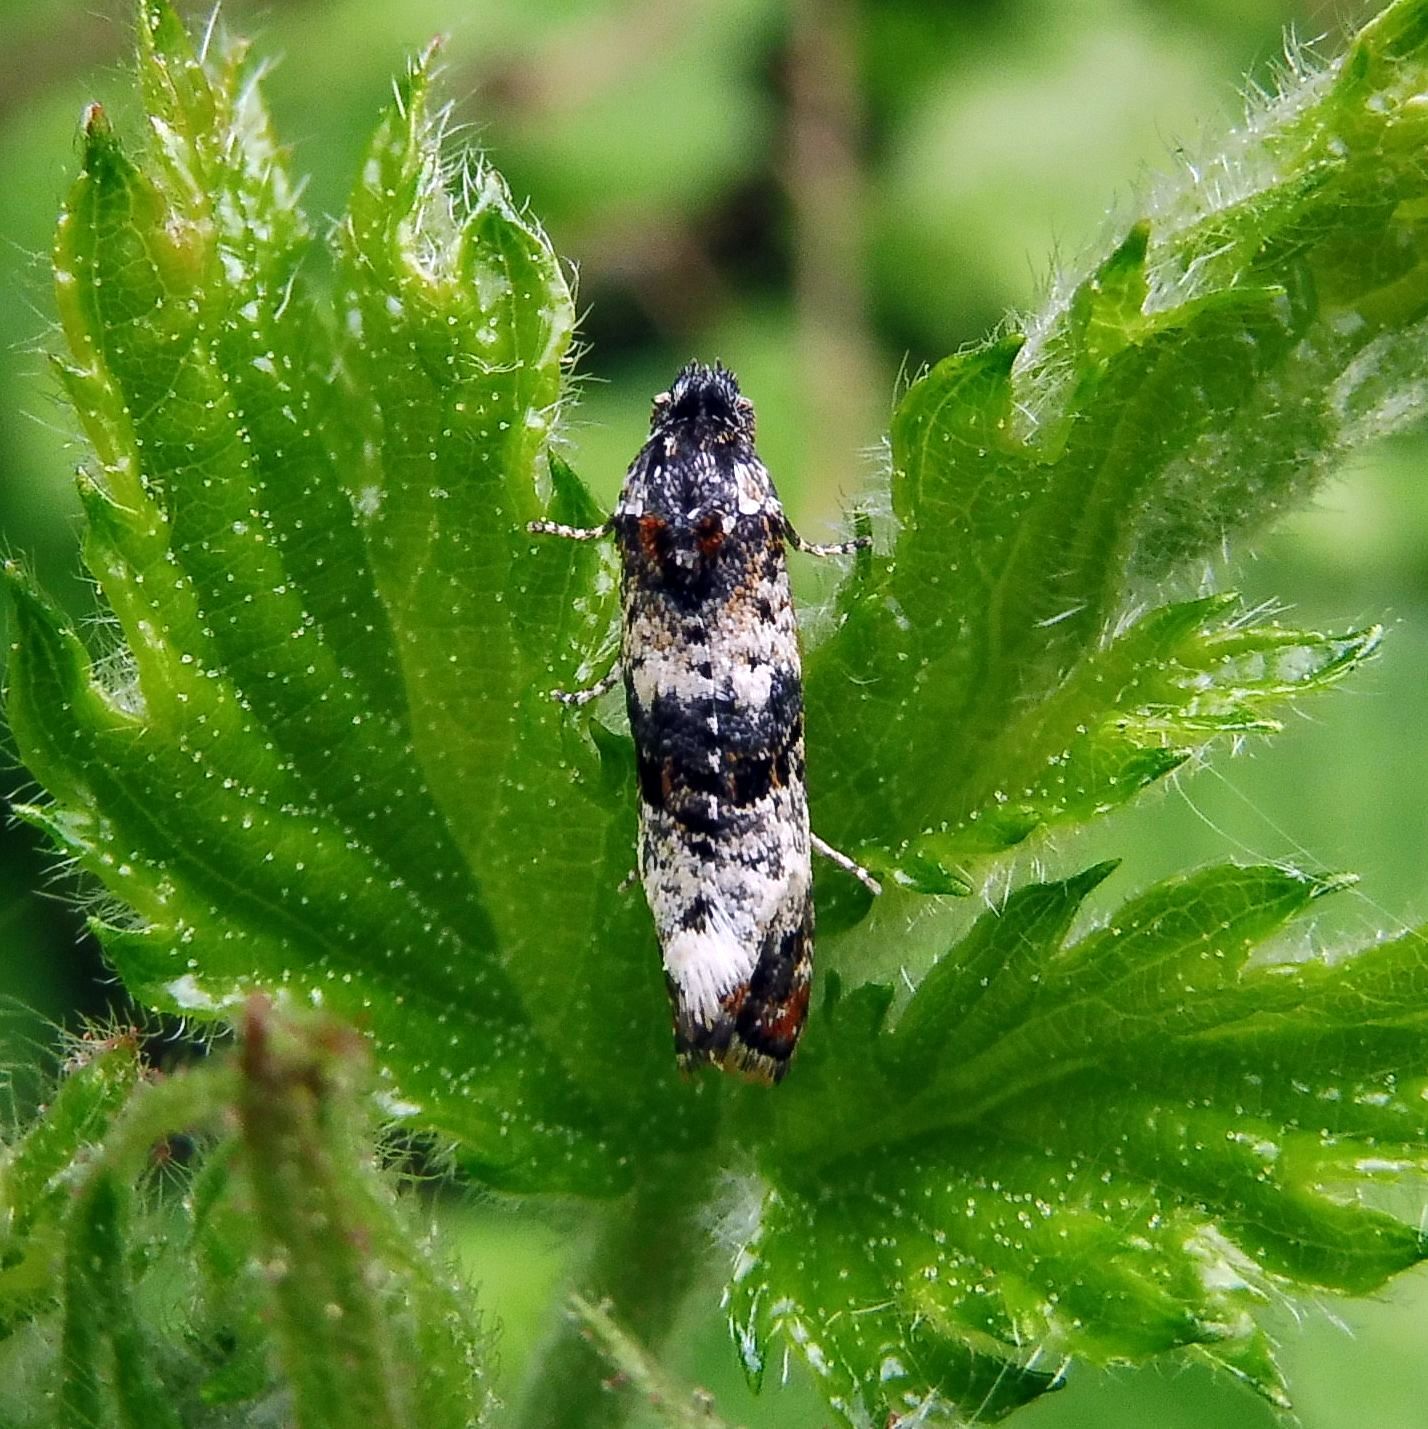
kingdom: Animalia
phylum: Arthropoda
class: Insecta
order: Lepidoptera
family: Tortricidae
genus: Hysterophora
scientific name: Hysterophora maculosana
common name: Bluebell conch
